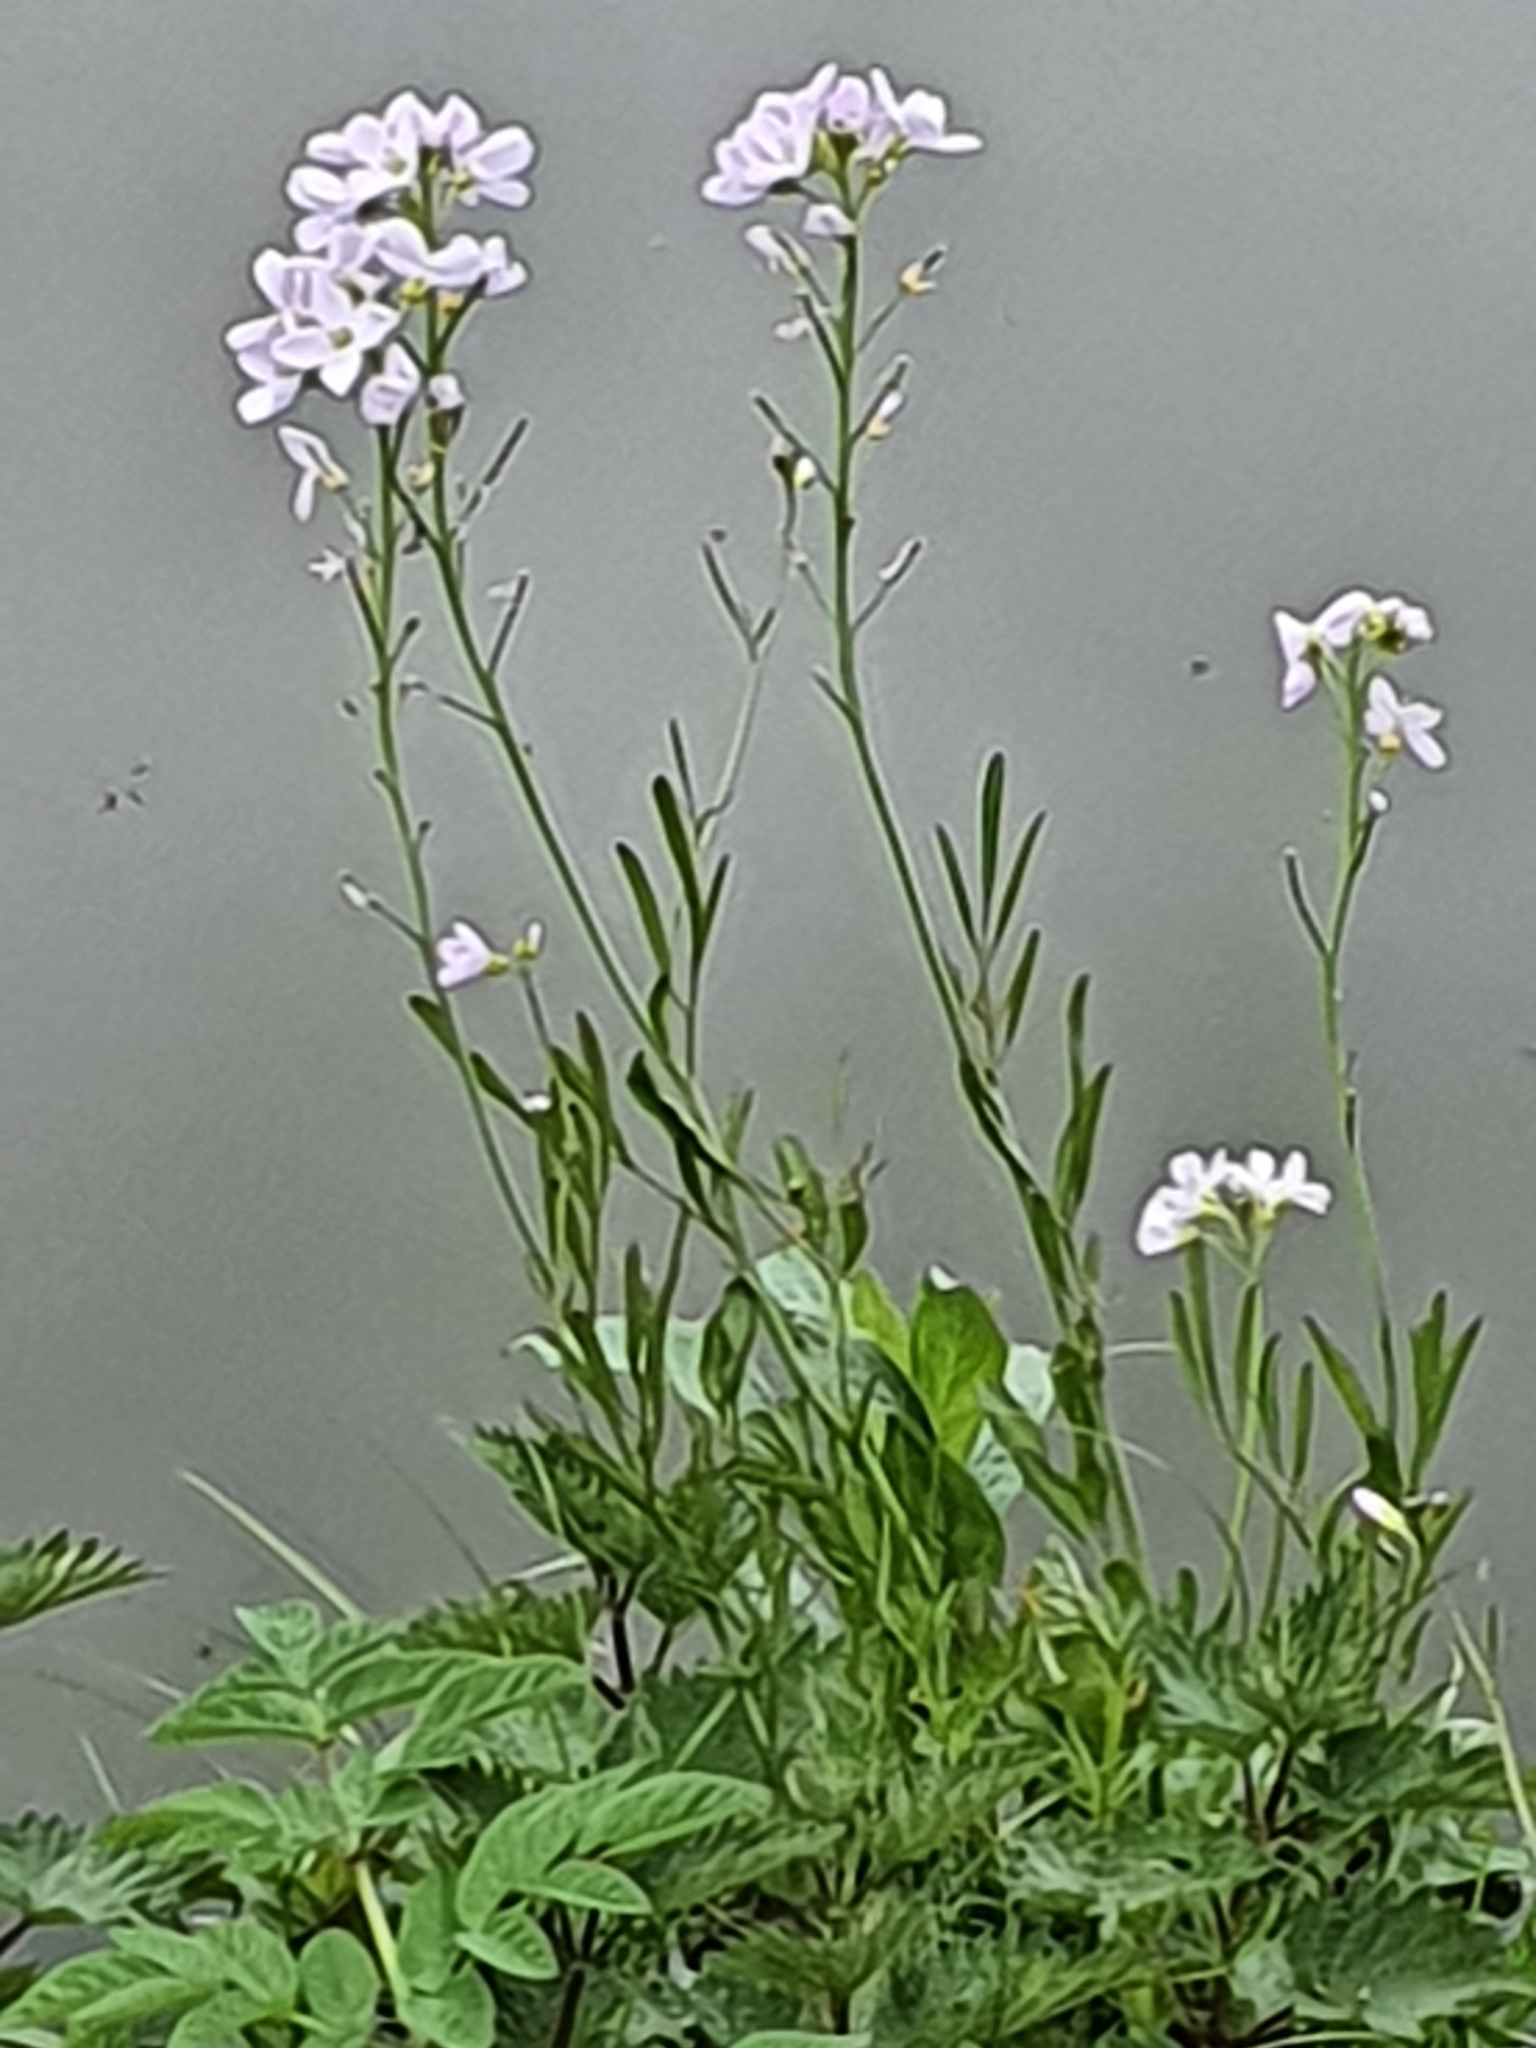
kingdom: Plantae
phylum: Tracheophyta
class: Magnoliopsida
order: Brassicales
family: Brassicaceae
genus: Cardamine
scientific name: Cardamine pratensis
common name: Cuckoo flower
